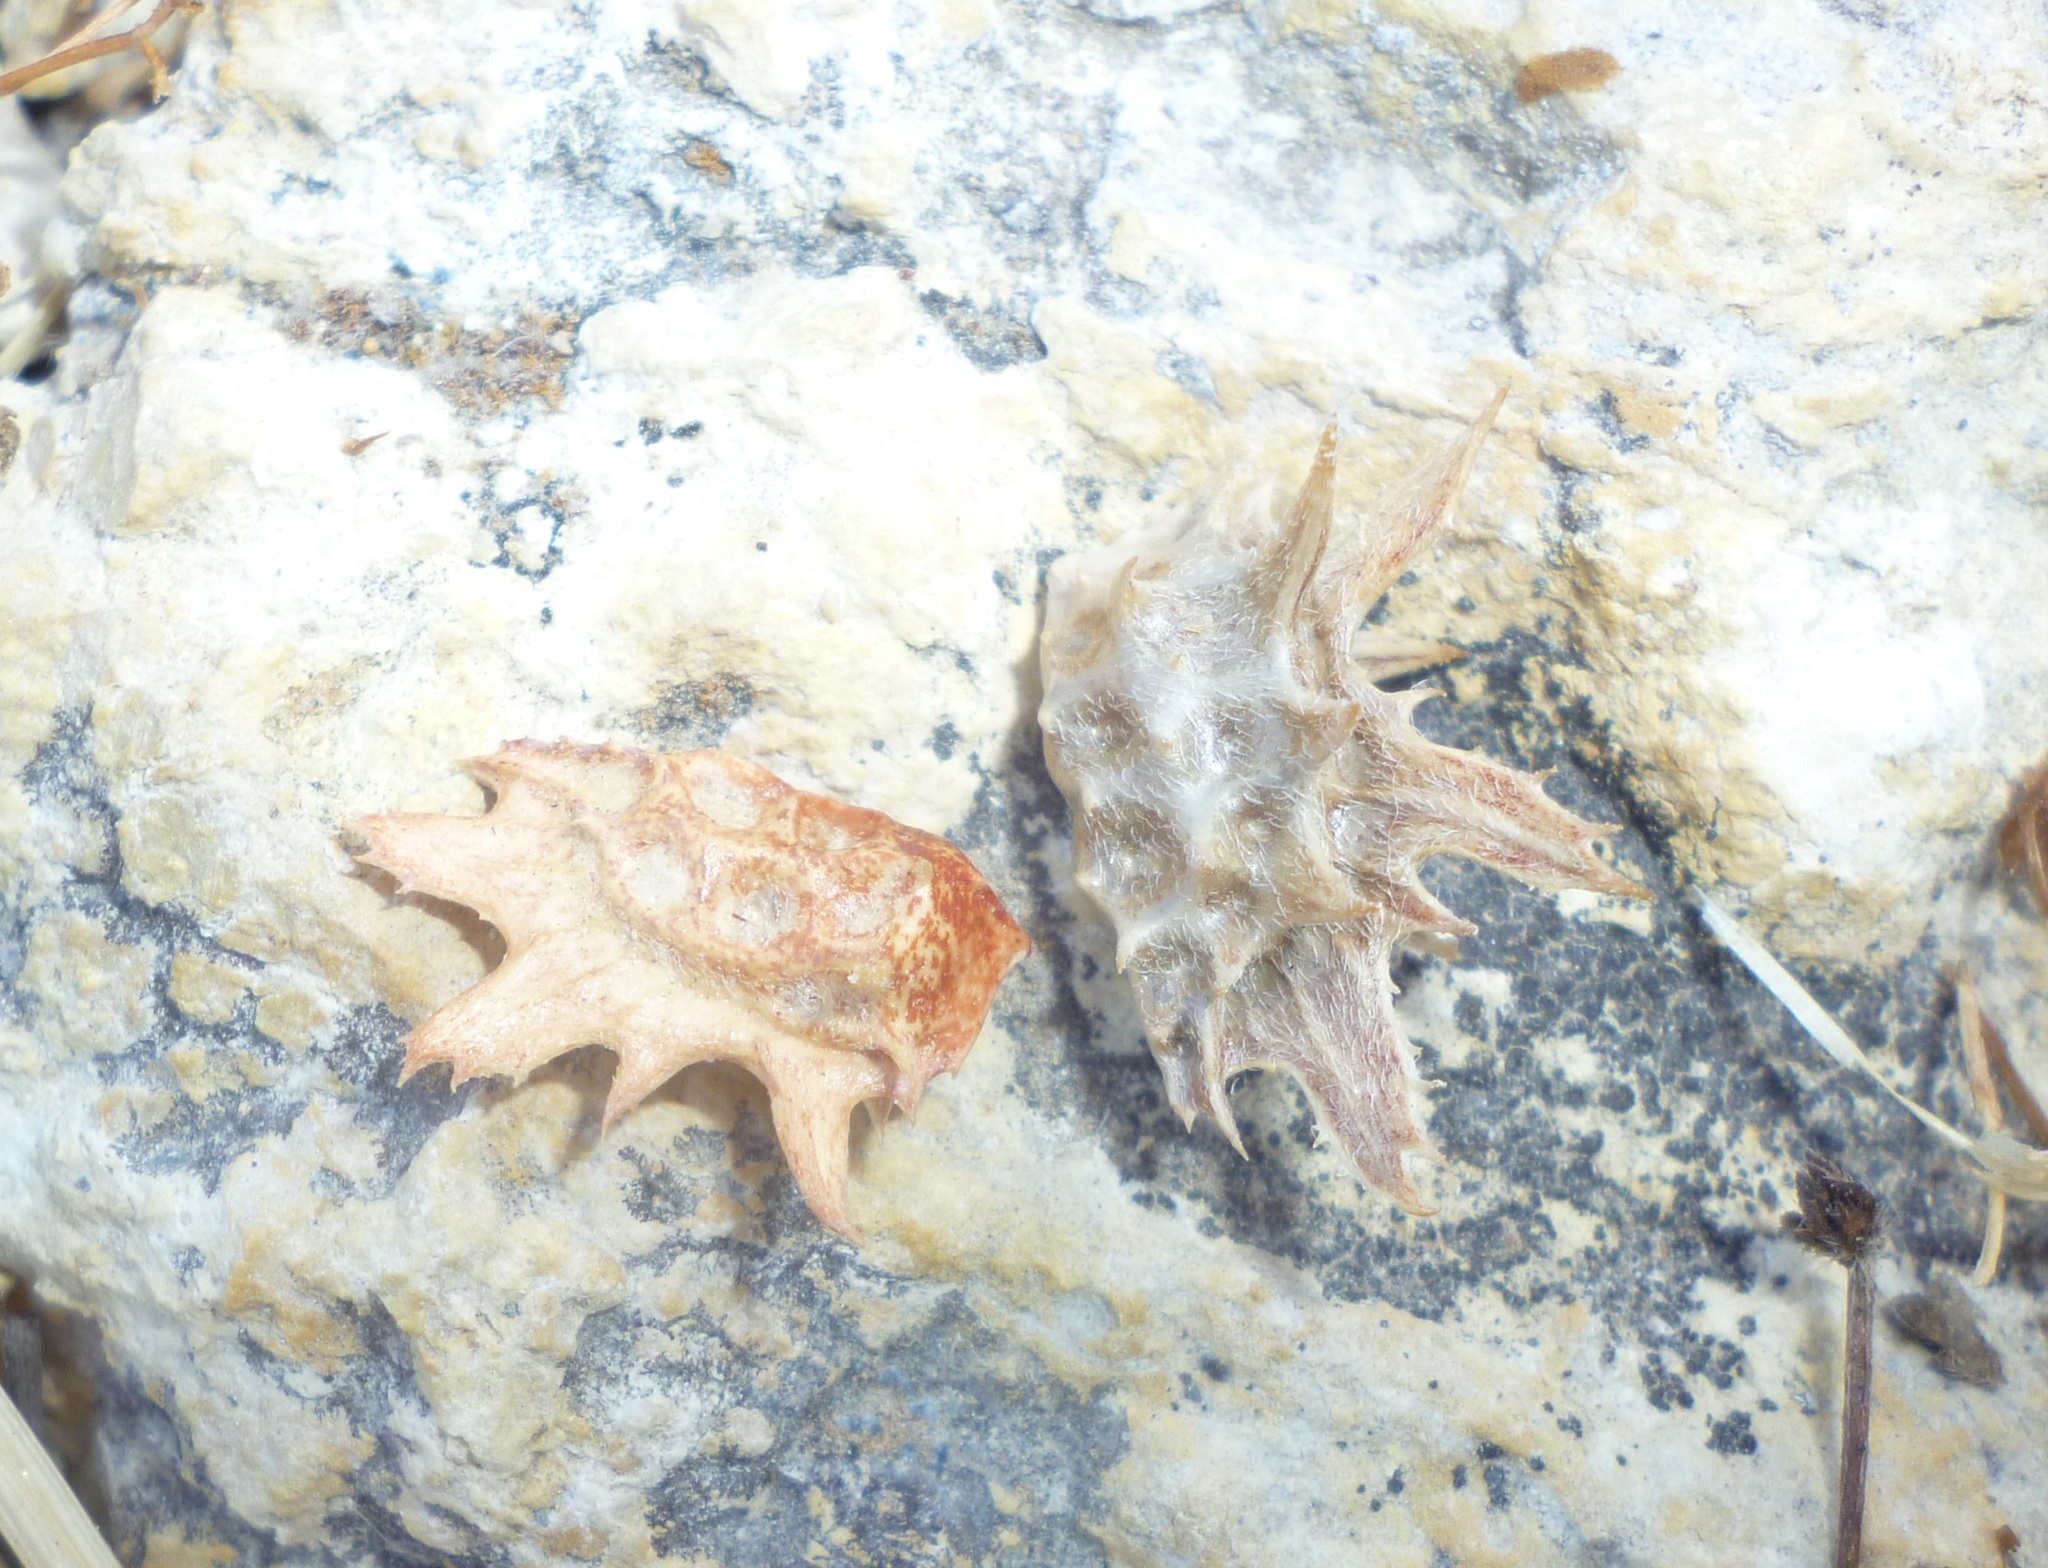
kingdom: Plantae
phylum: Tracheophyta
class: Magnoliopsida
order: Fabales
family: Fabaceae
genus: Onobrychis
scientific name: Onobrychis squarrosa
